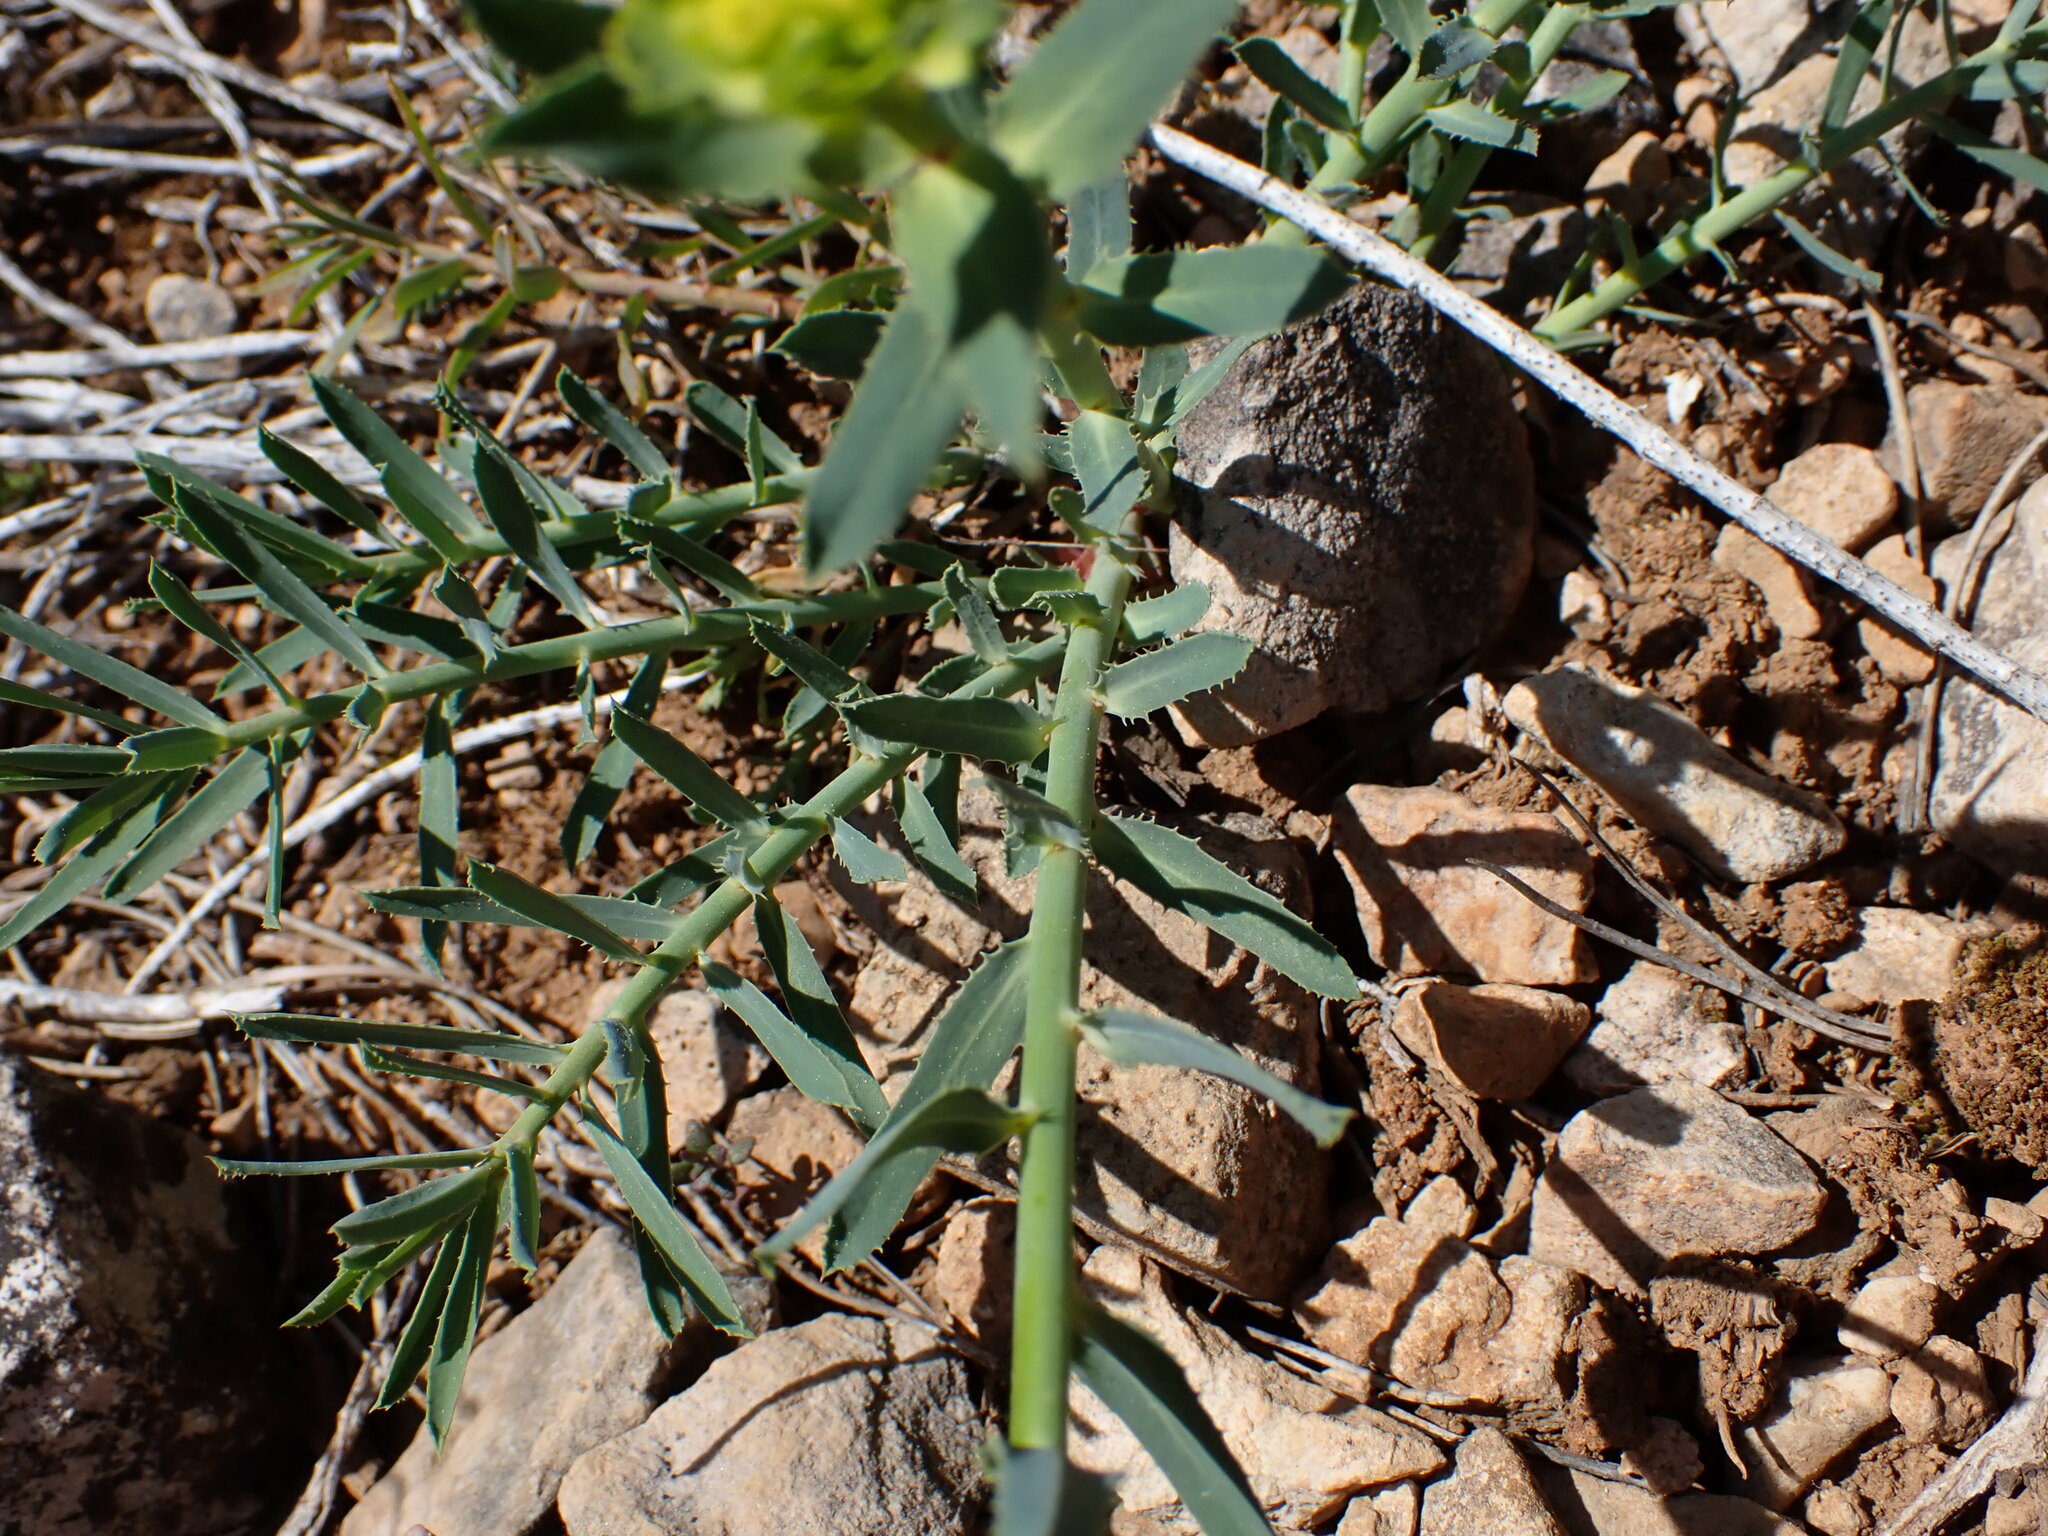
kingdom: Plantae
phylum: Tracheophyta
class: Magnoliopsida
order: Malpighiales
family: Euphorbiaceae
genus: Euphorbia
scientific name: Euphorbia serrata
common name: Serrate spurge
